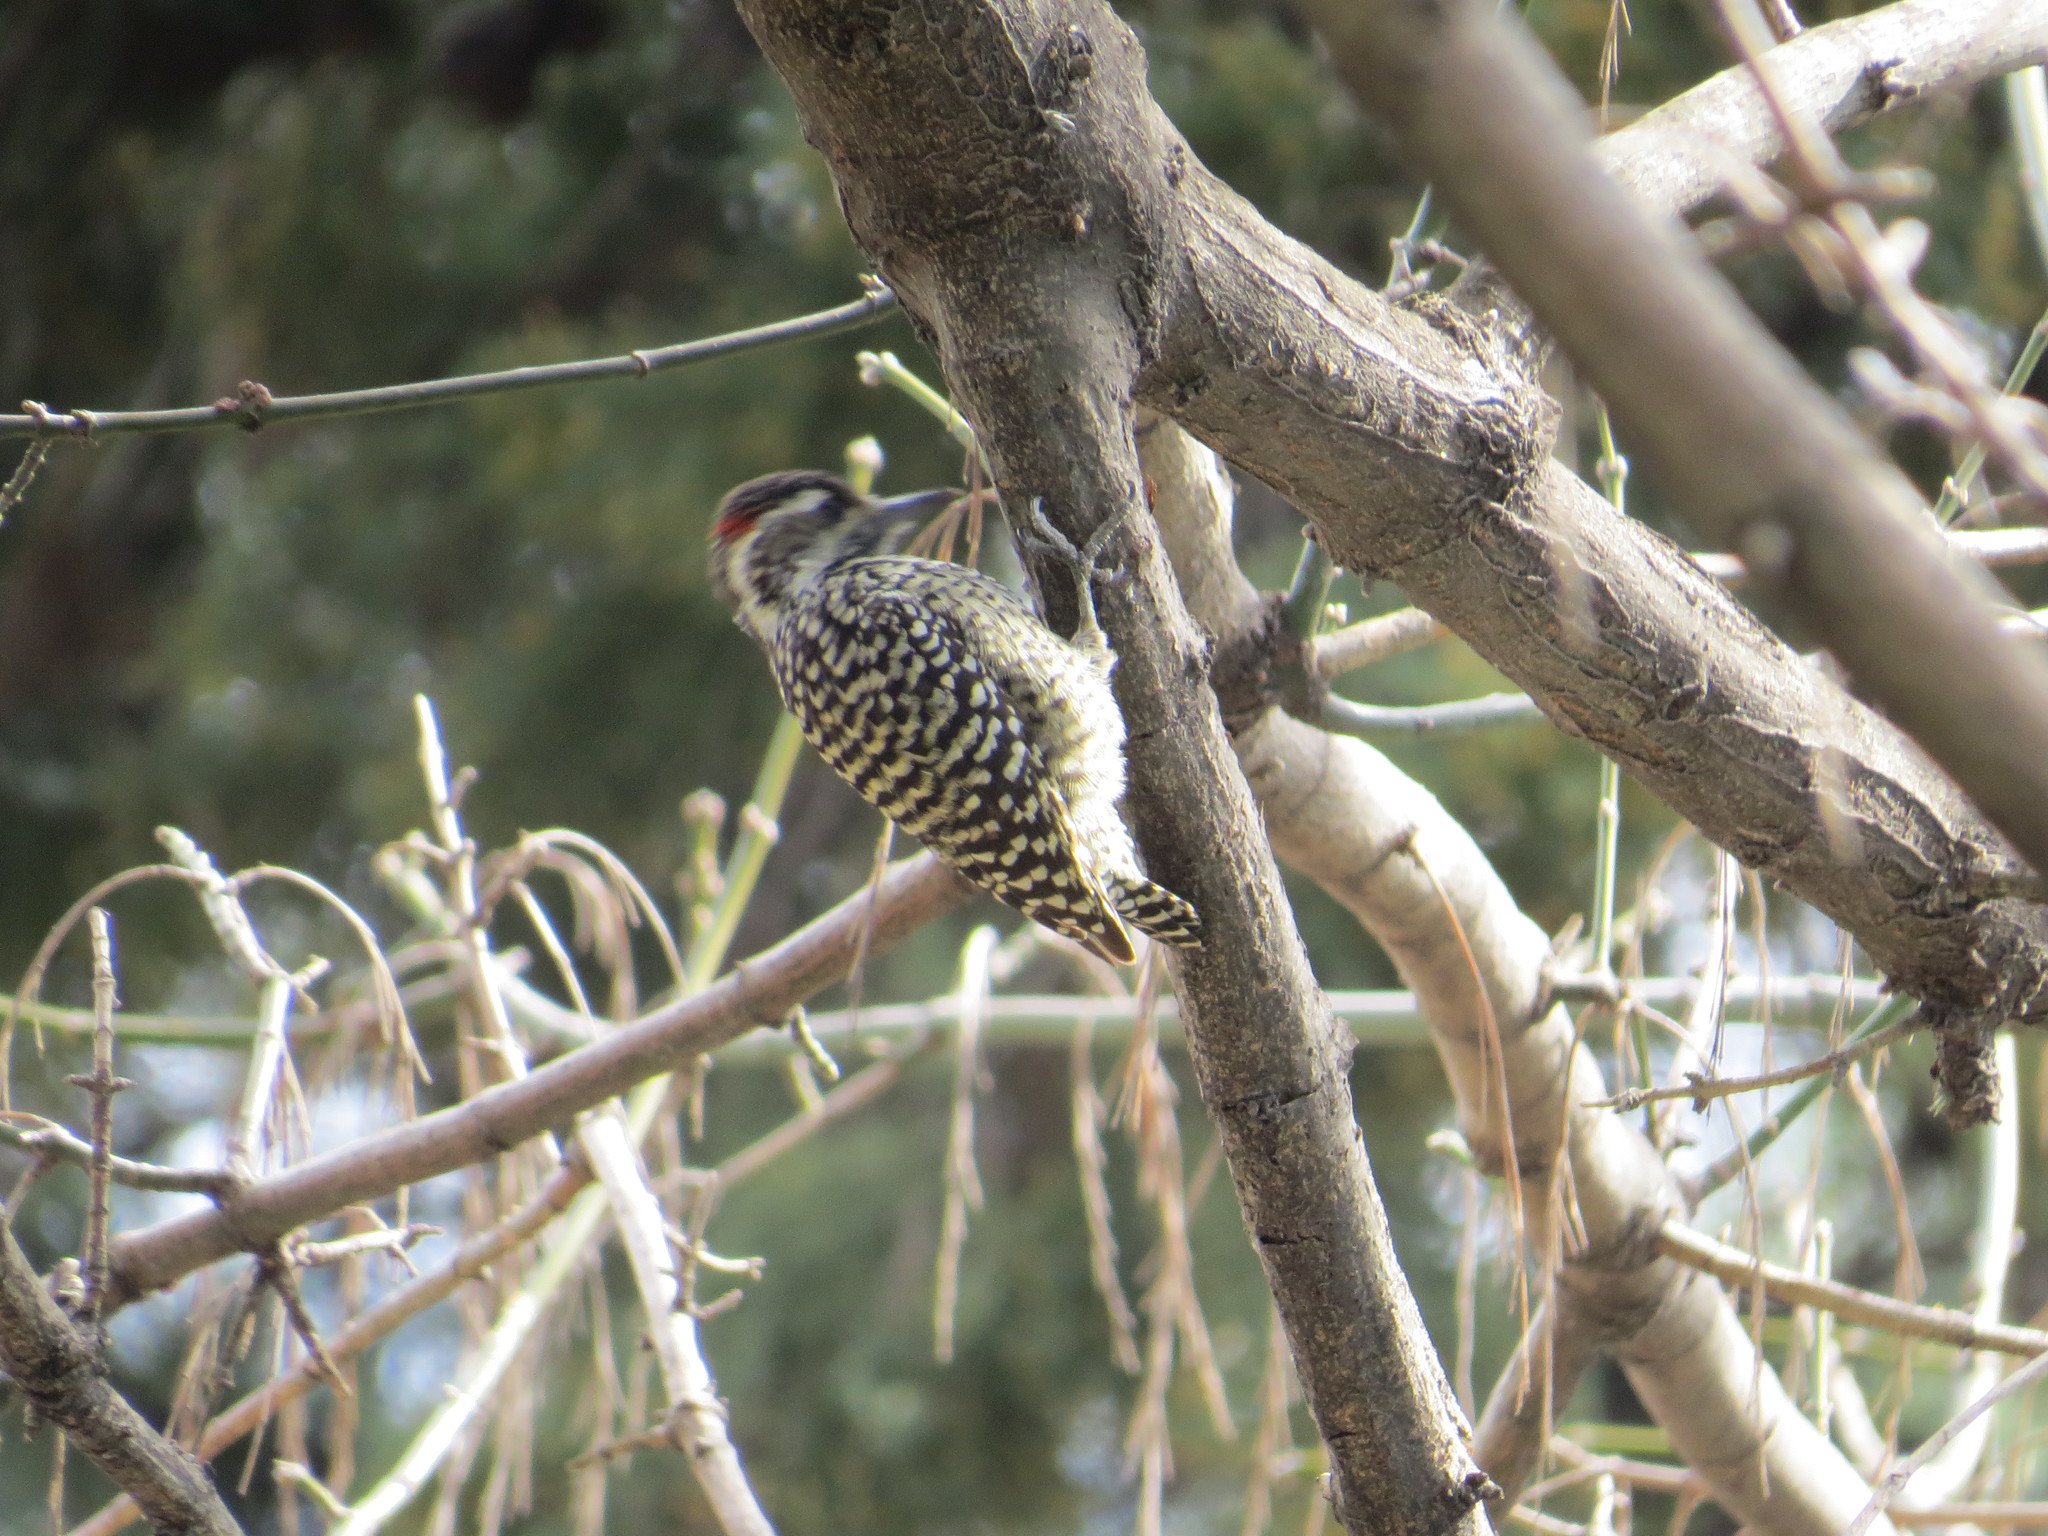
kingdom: Animalia
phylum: Chordata
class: Aves
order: Piciformes
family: Picidae
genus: Veniliornis
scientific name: Veniliornis mixtus
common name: Checkered woodpecker
